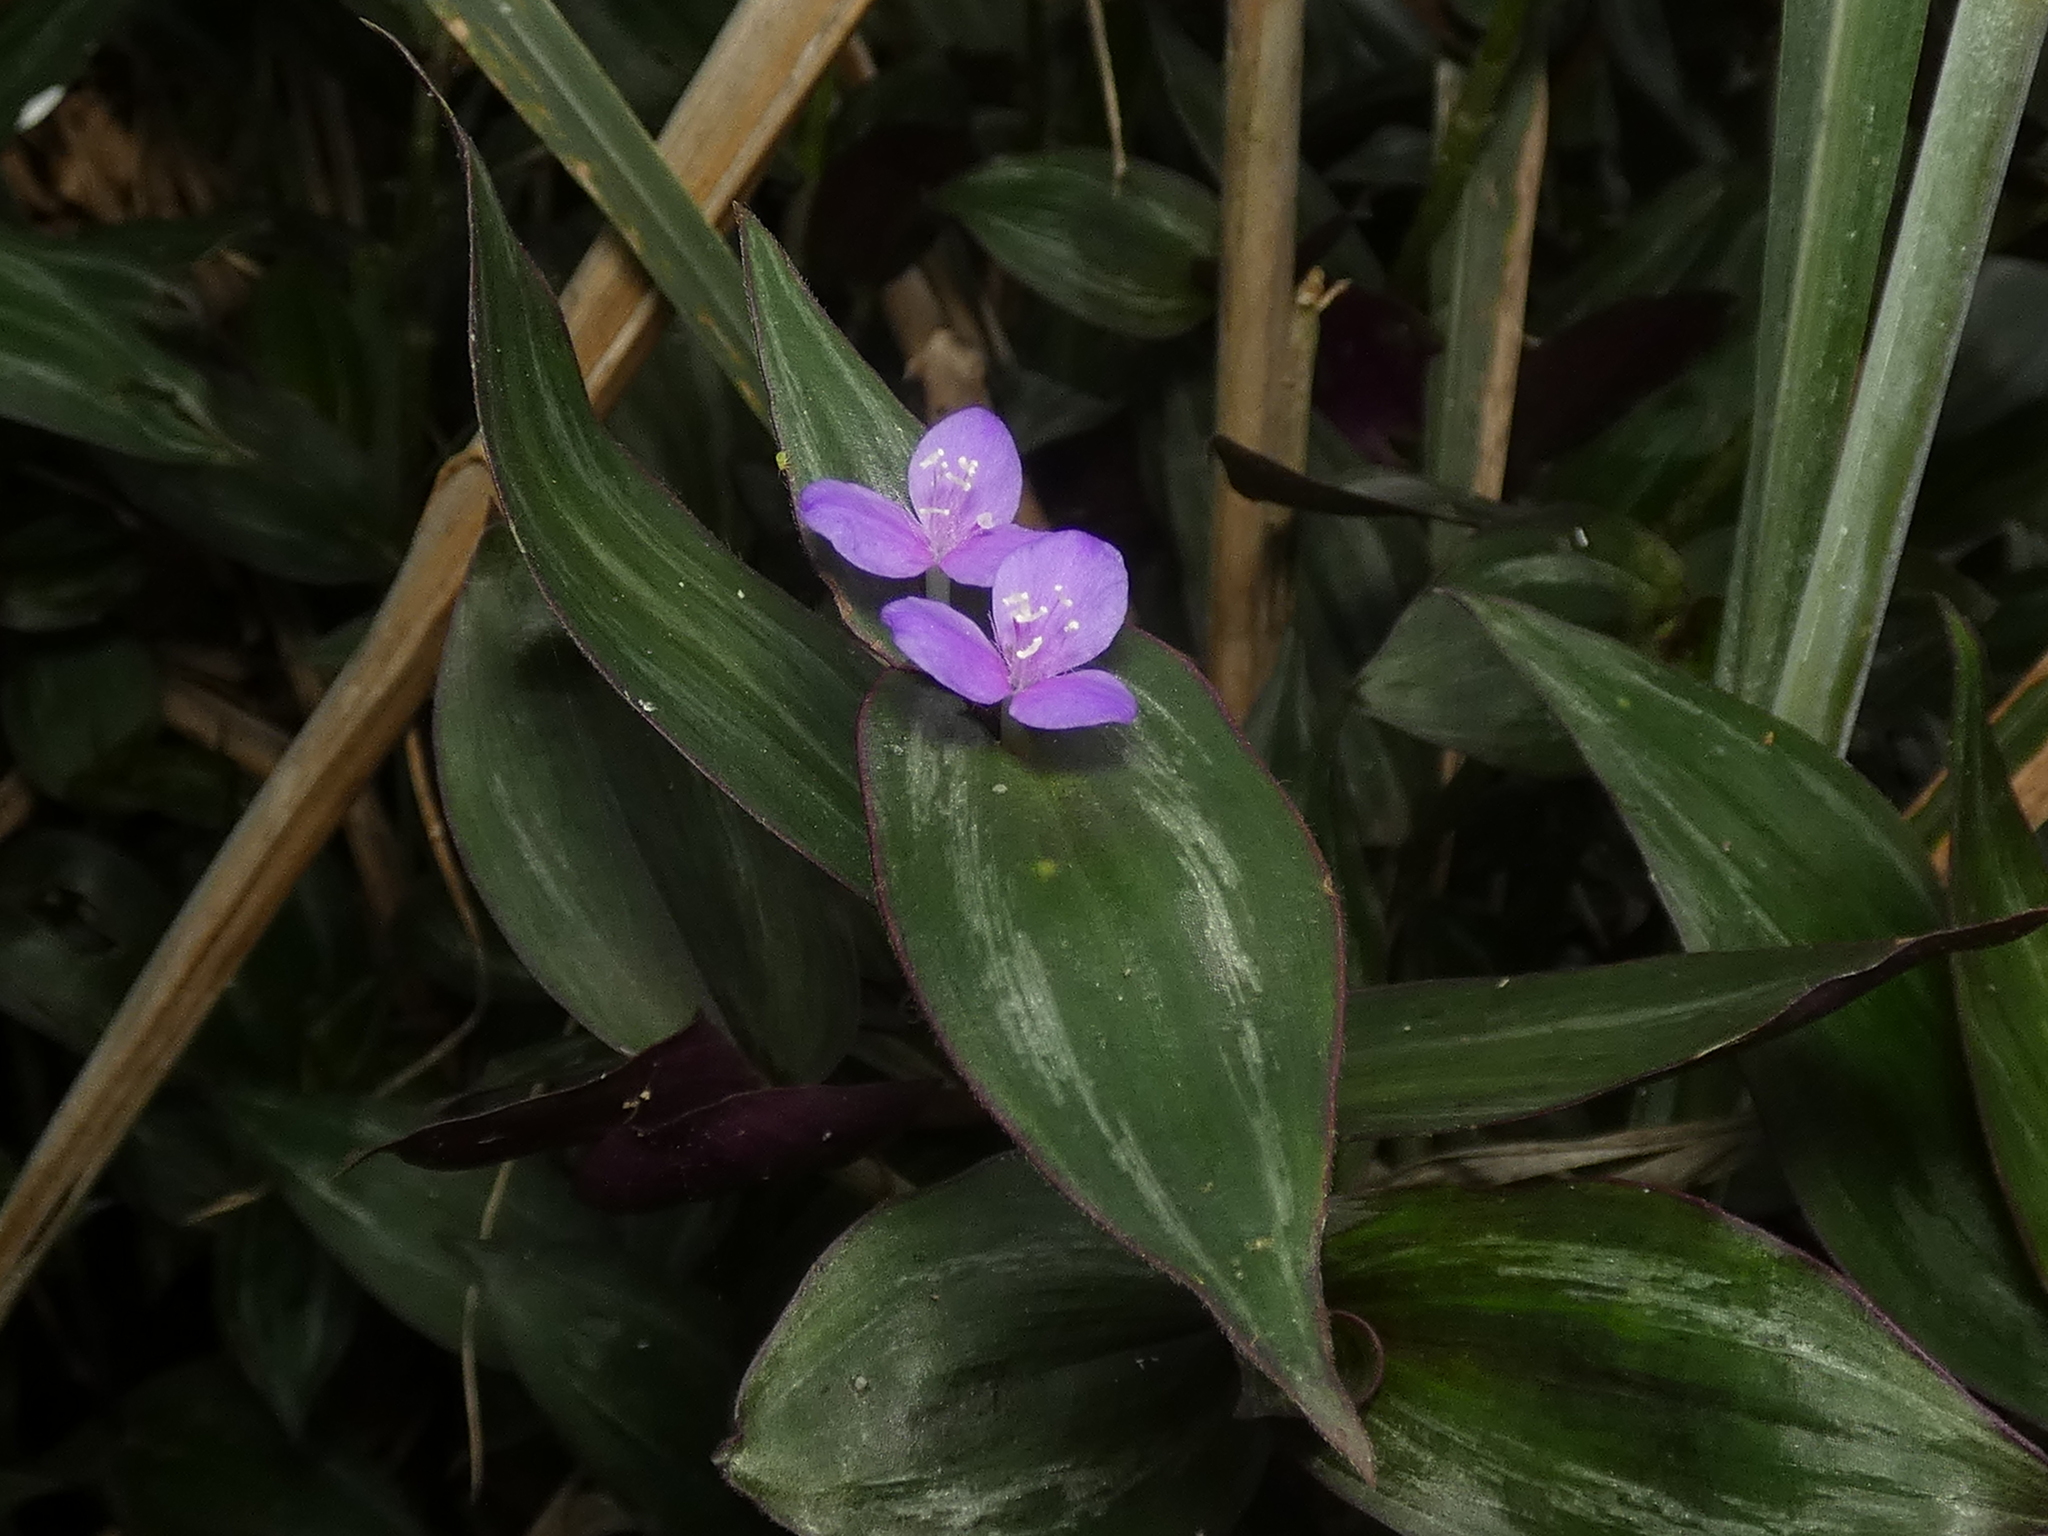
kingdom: Plantae
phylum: Tracheophyta
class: Liliopsida
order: Commelinales
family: Commelinaceae
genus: Tradescantia
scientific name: Tradescantia zebrina
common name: Inchplant
